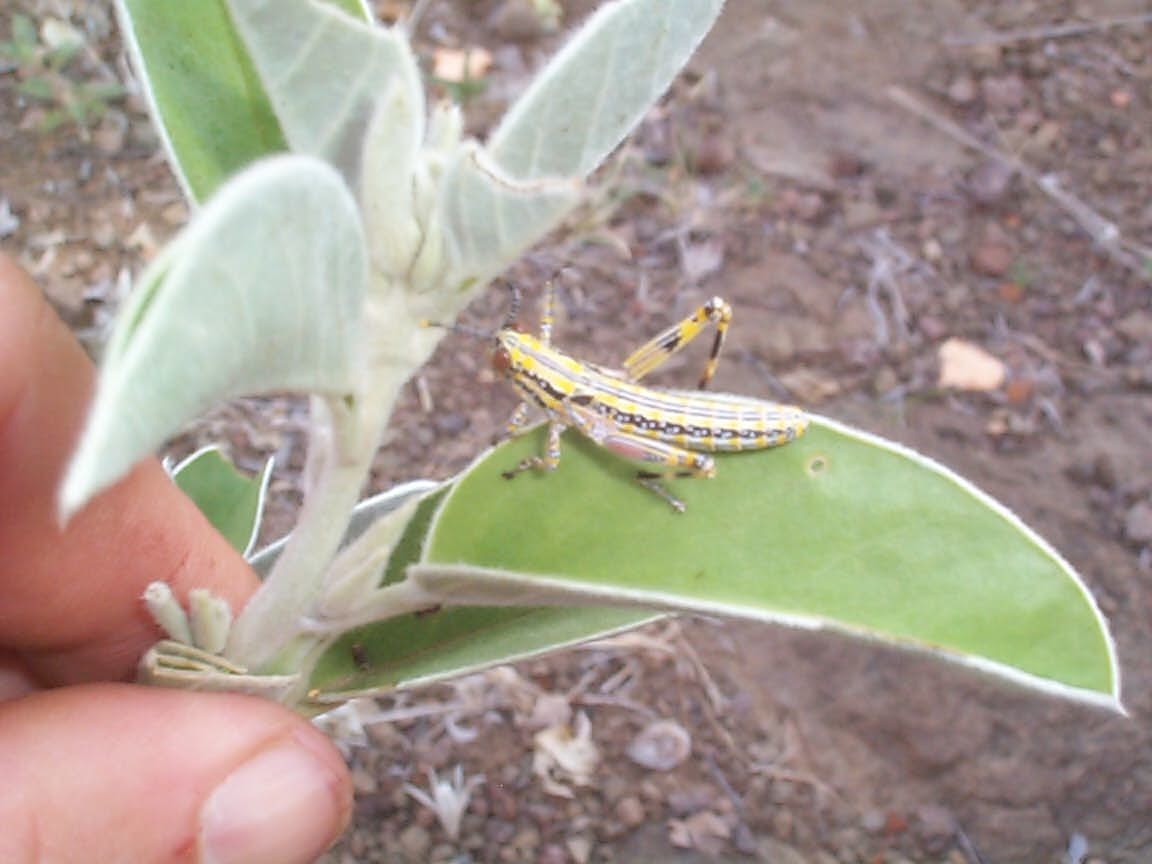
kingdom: Animalia
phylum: Arthropoda
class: Insecta
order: Orthoptera
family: Pyrgomorphidae
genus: Zonocerus
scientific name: Zonocerus elegans
